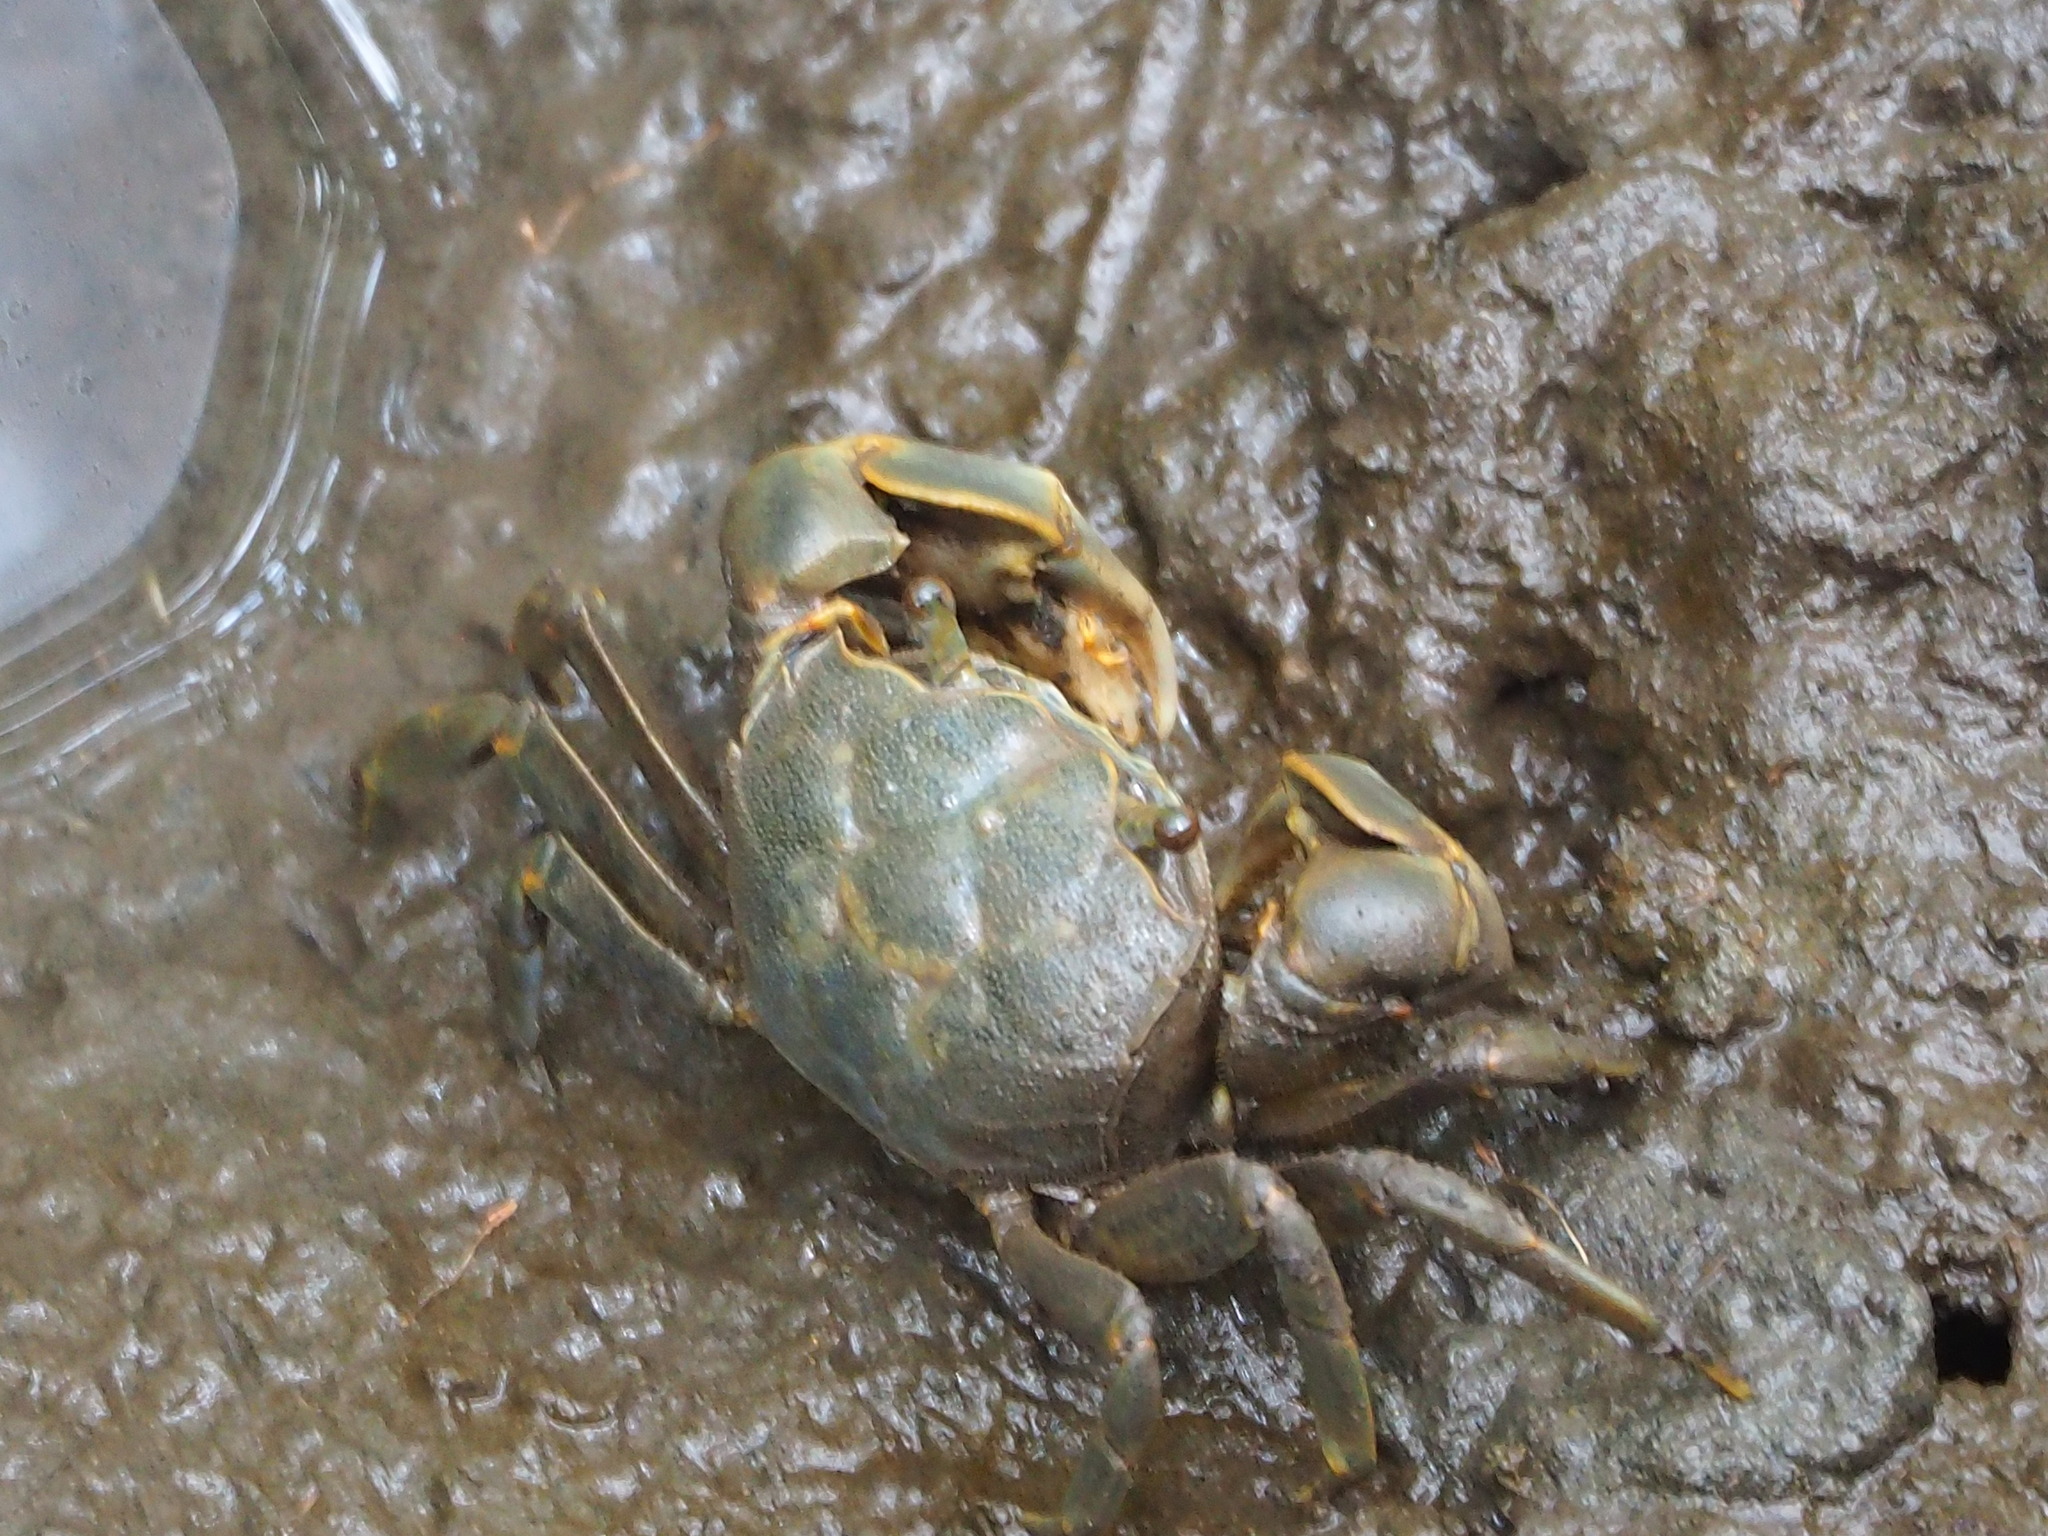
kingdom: Animalia
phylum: Arthropoda
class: Malacostraca
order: Decapoda
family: Varunidae
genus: Helice
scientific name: Helice formosensis
